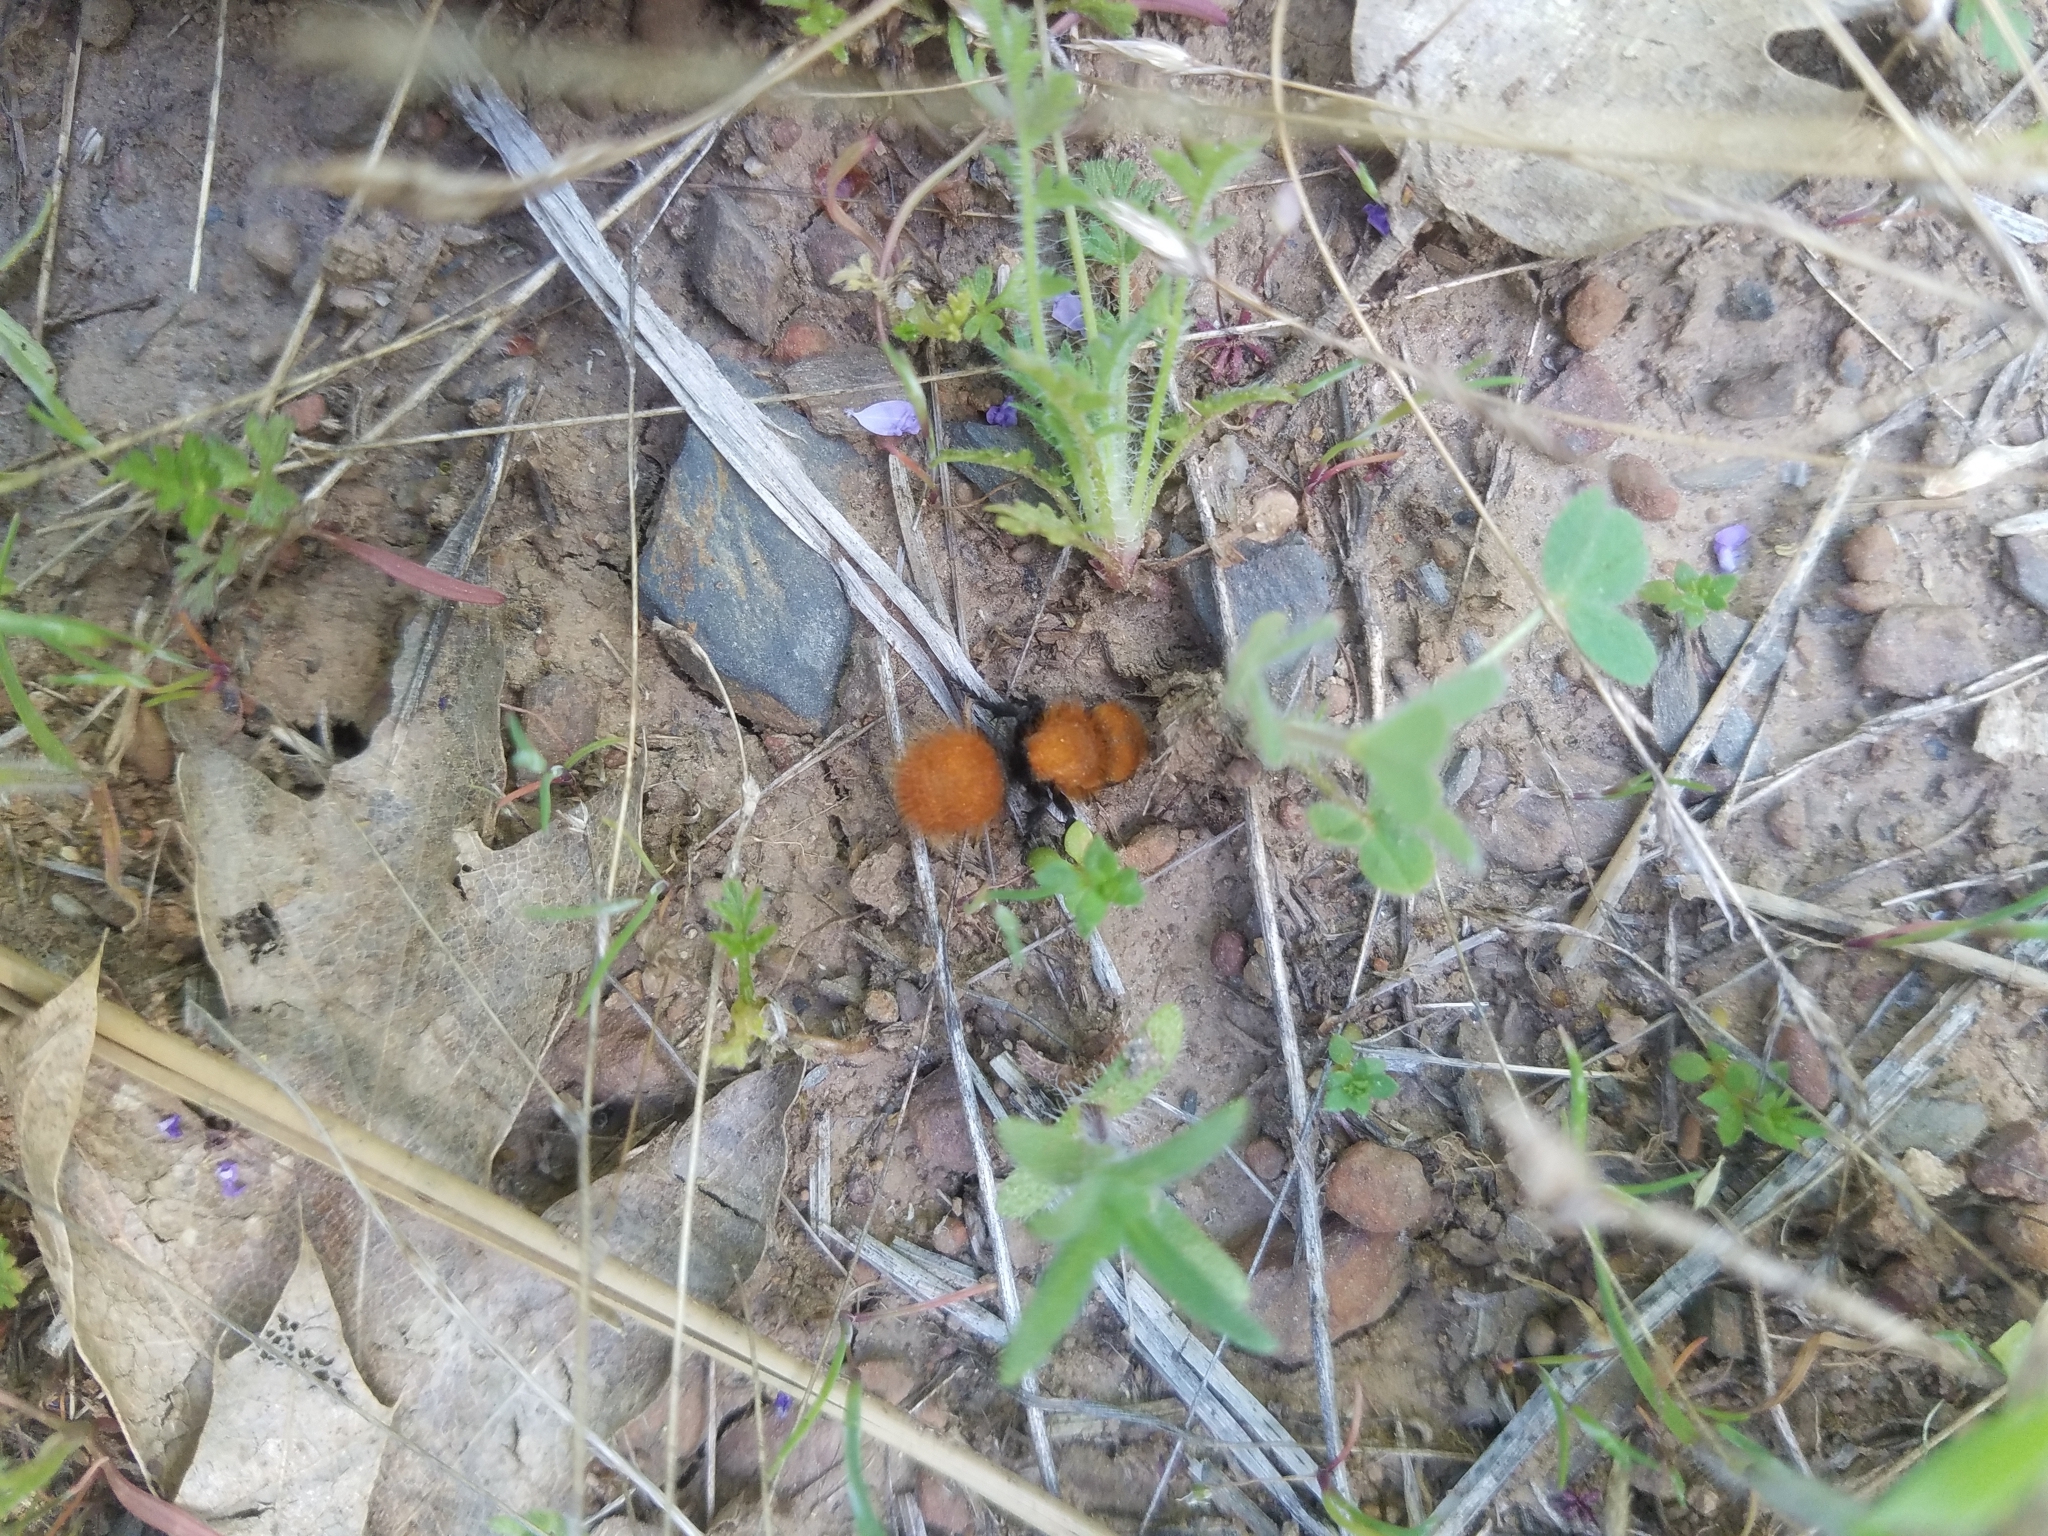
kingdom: Animalia
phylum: Arthropoda
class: Insecta
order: Hymenoptera
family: Mutillidae
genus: Dasymutilla
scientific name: Dasymutilla
